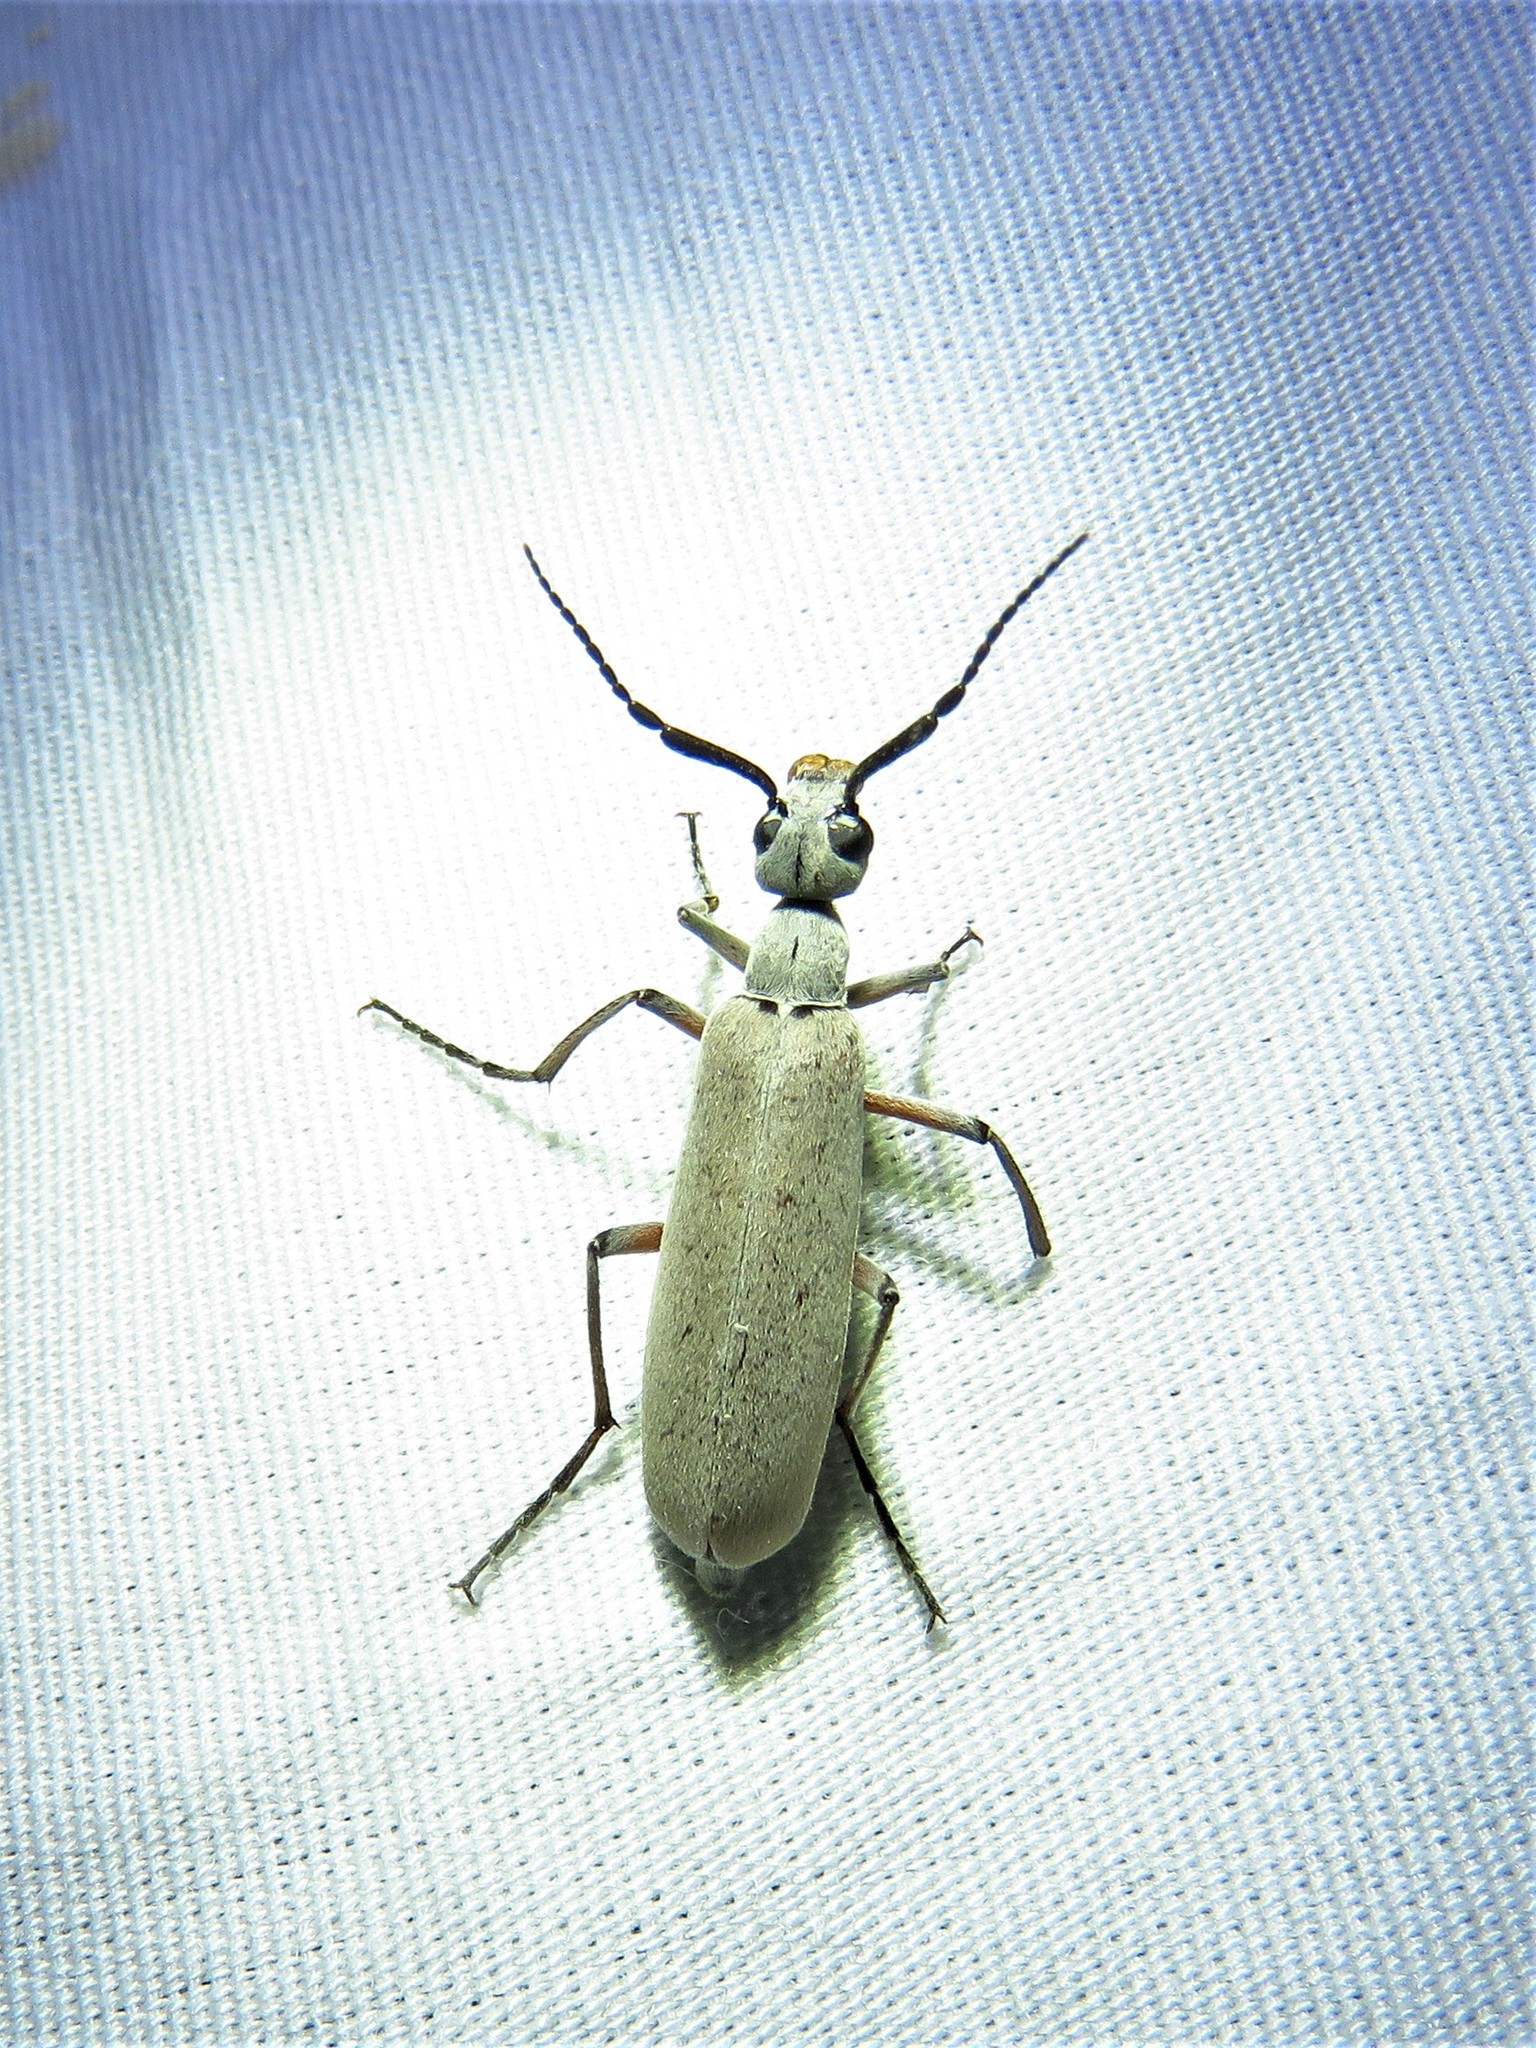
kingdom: Animalia
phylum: Arthropoda
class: Insecta
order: Coleoptera
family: Meloidae
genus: Epicauta
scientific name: Epicauta polingi
